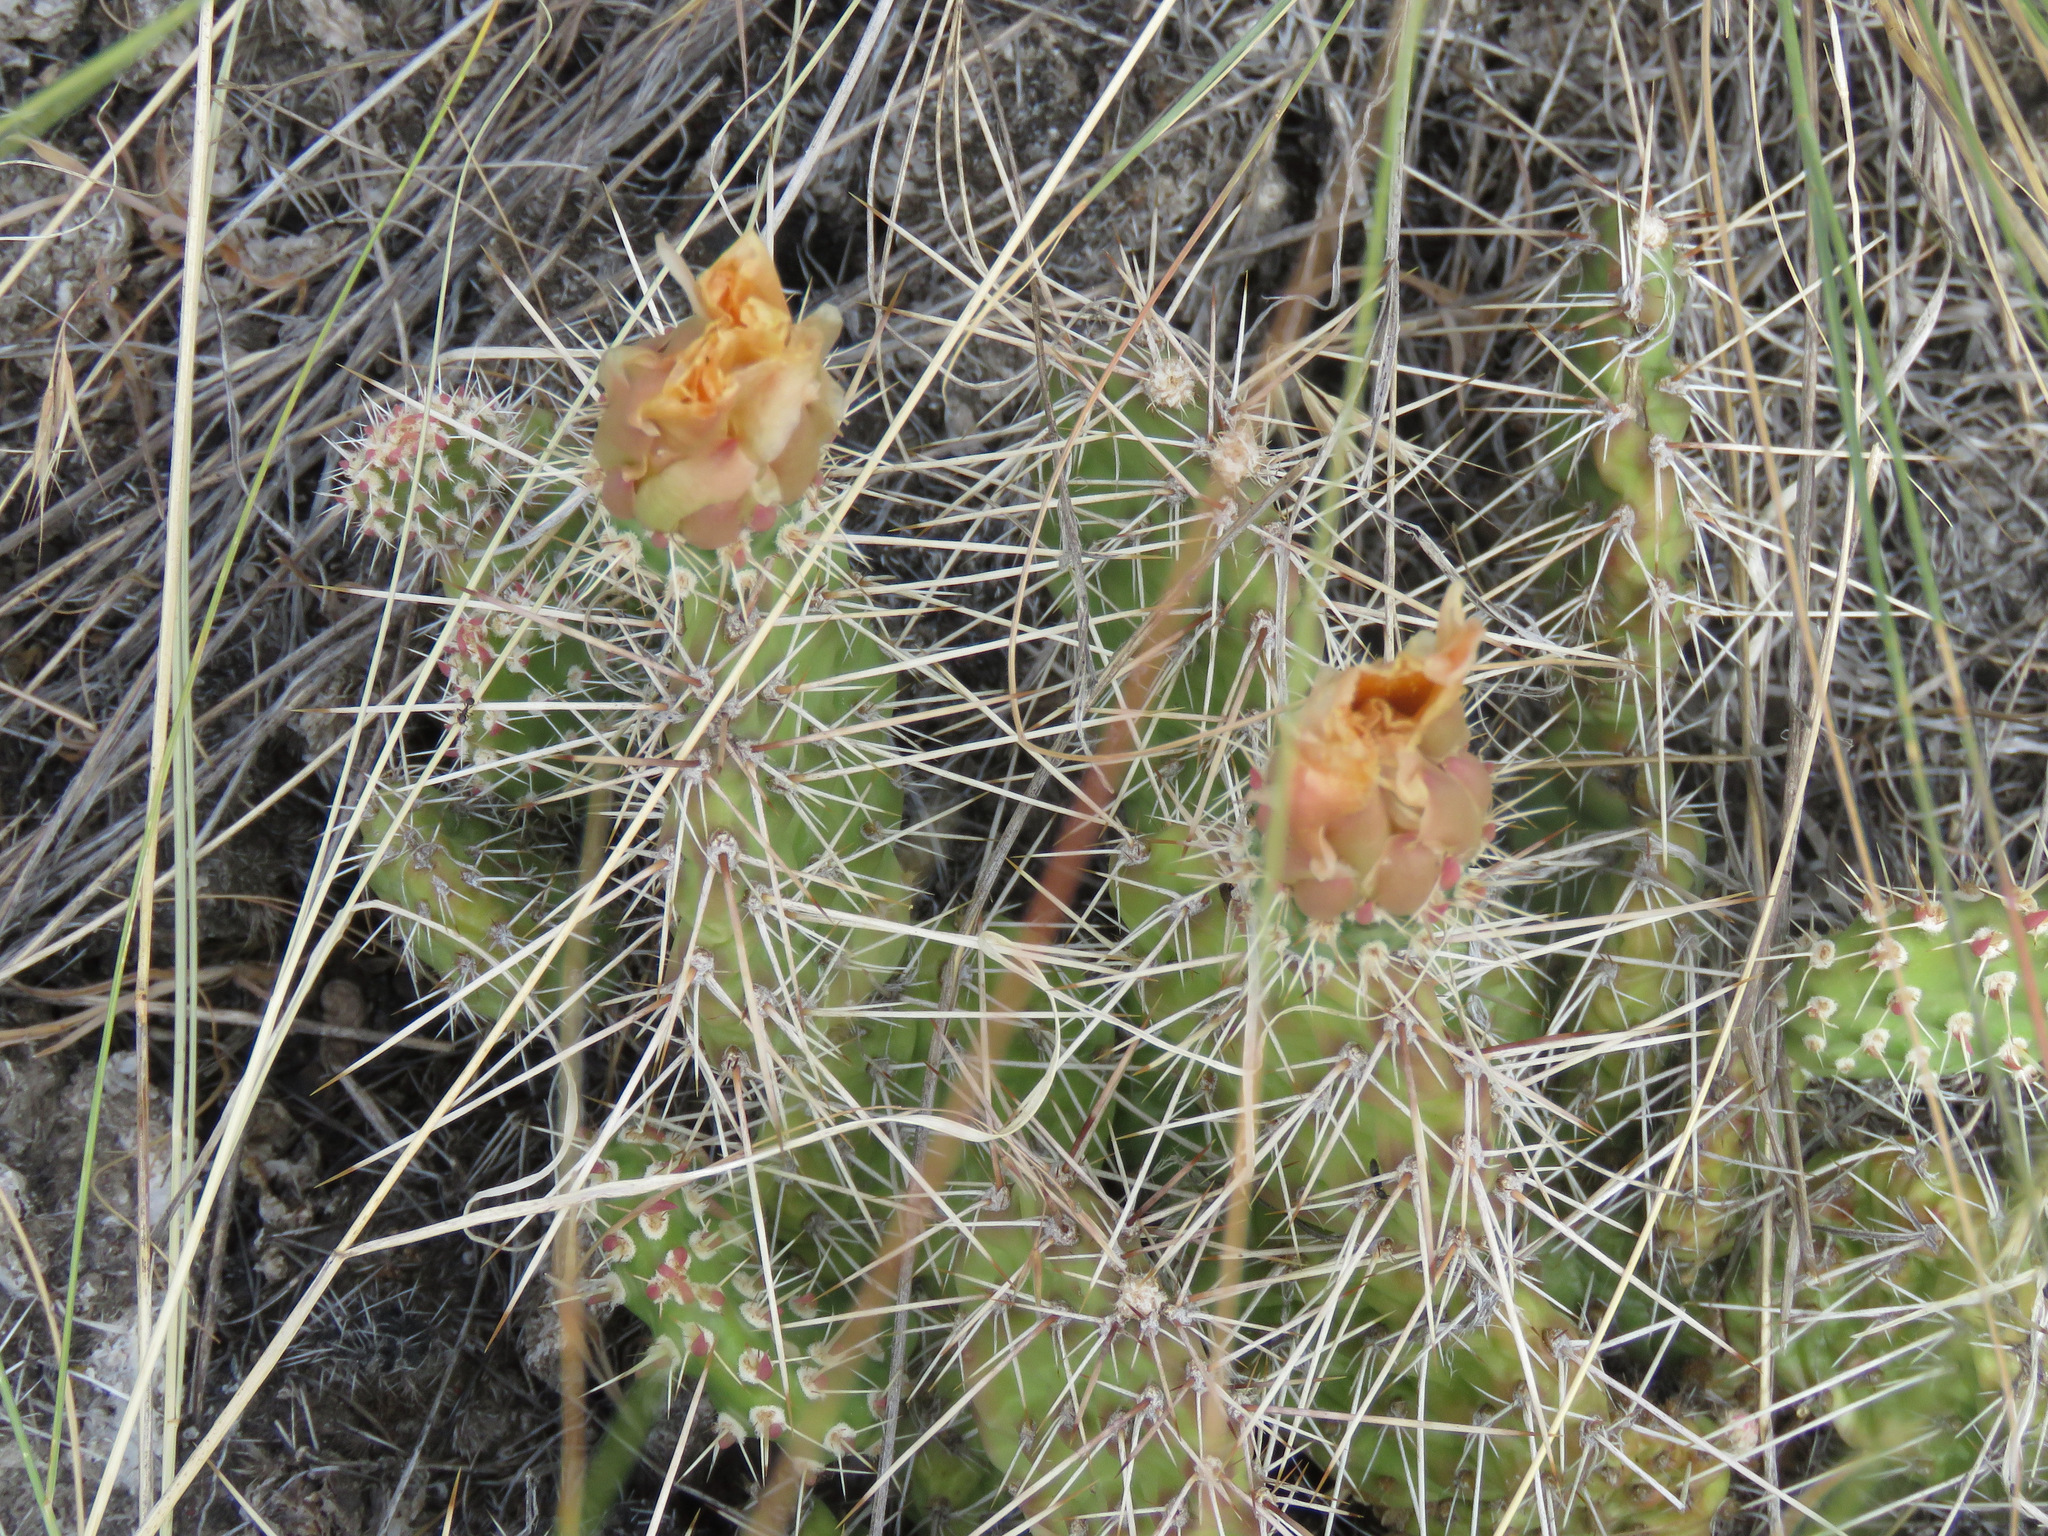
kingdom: Plantae
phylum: Tracheophyta
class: Magnoliopsida
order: Caryophyllales
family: Cactaceae
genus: Opuntia
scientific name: Opuntia fragilis
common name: Brittle cactus
